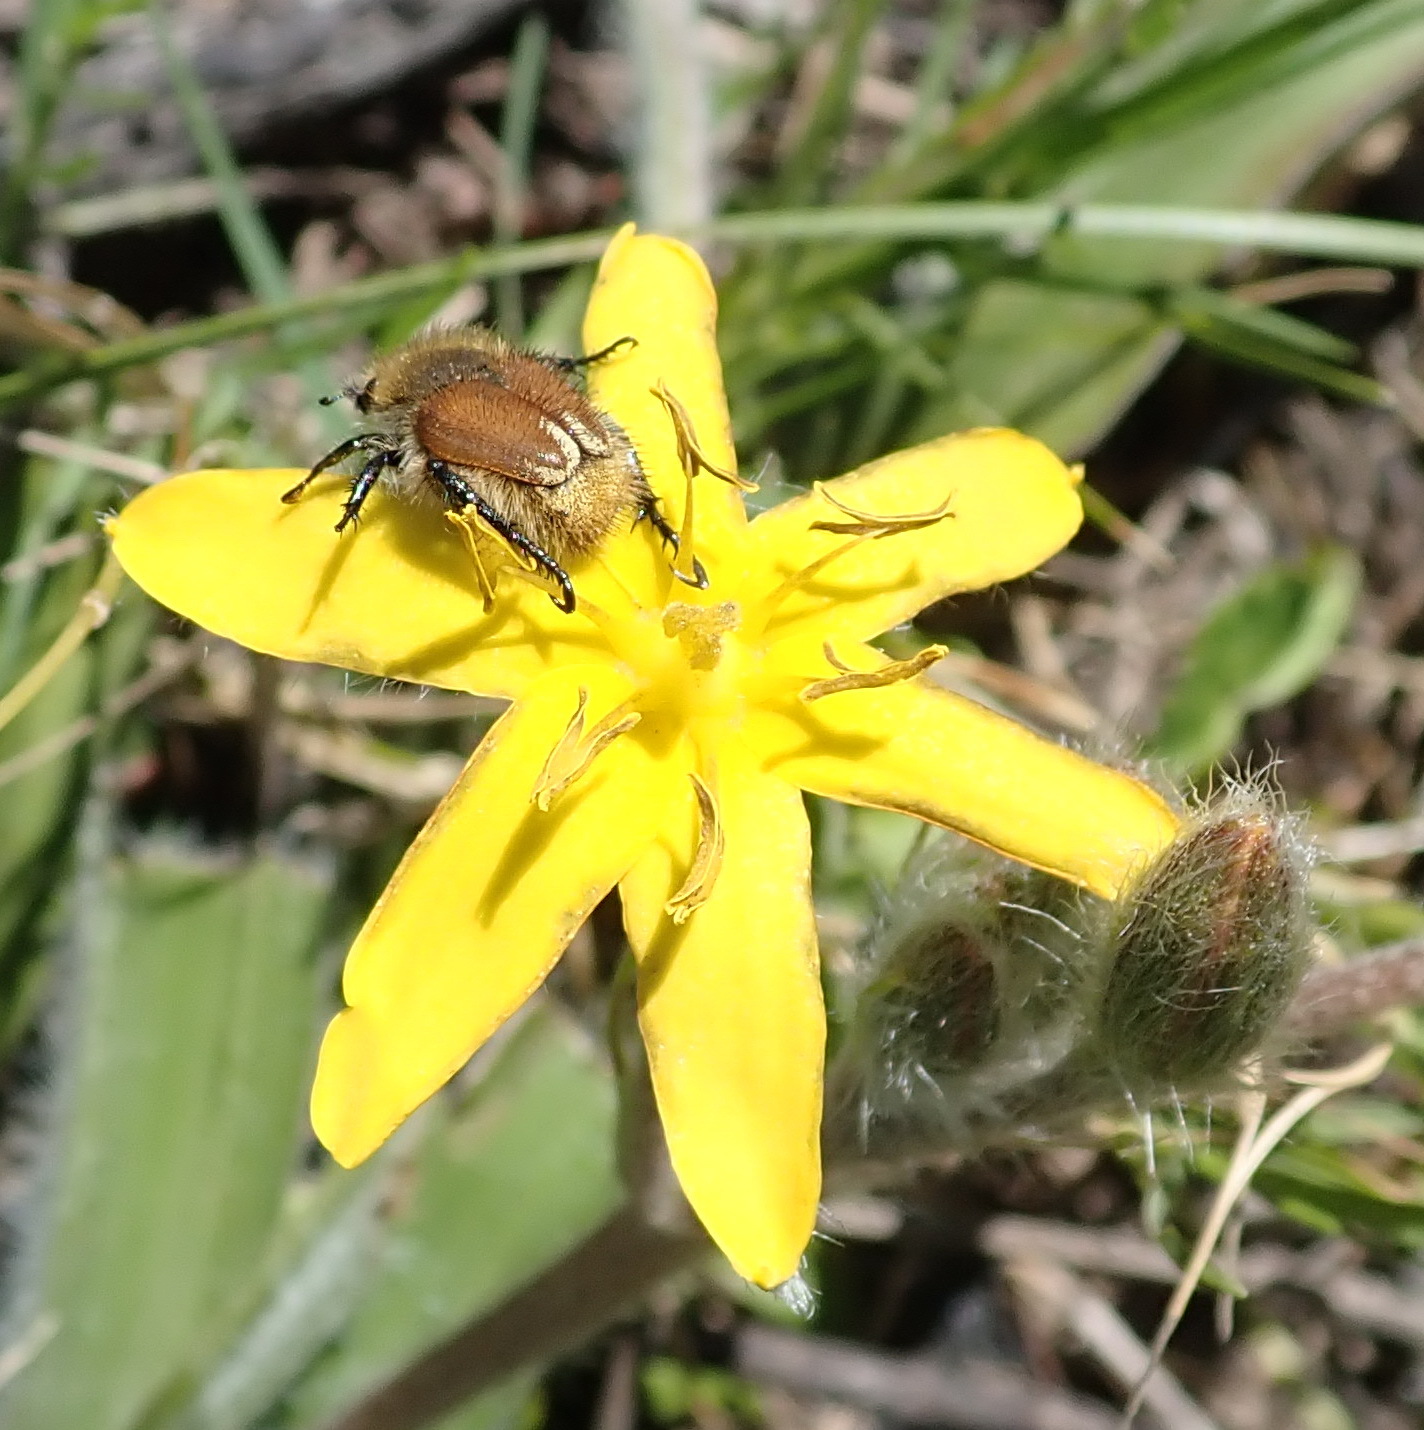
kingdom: Plantae
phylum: Tracheophyta
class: Liliopsida
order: Asparagales
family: Hypoxidaceae
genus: Hypoxis
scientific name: Hypoxis villosa
